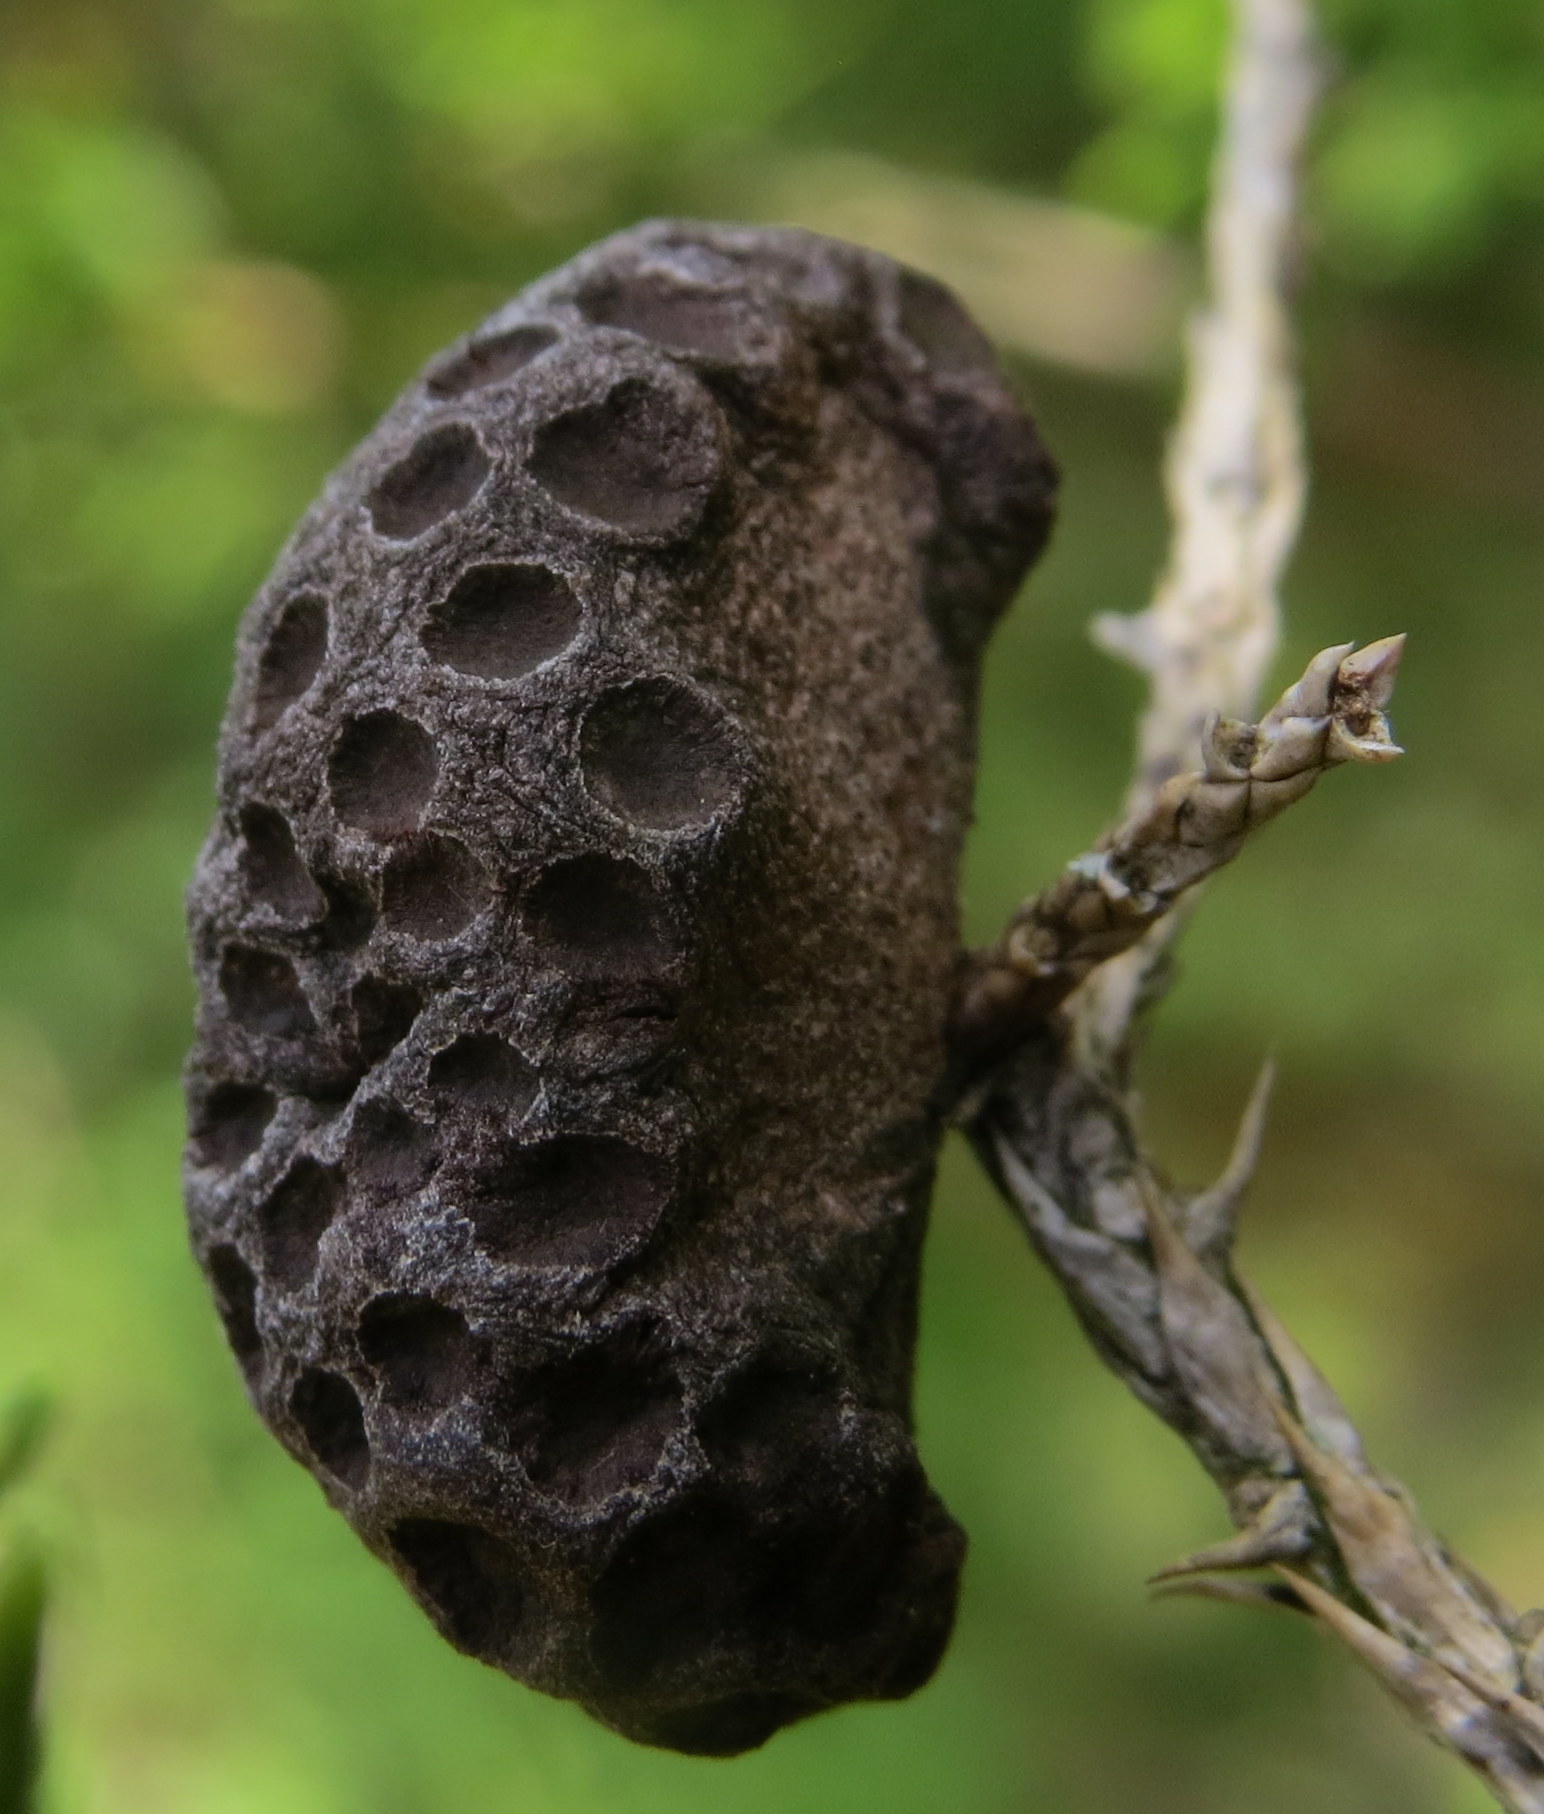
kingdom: Fungi
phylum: Basidiomycota
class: Pucciniomycetes
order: Pucciniales
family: Gymnosporangiaceae
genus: Gymnosporangium
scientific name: Gymnosporangium juniperi-virginianae
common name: Juniper-apple rust
